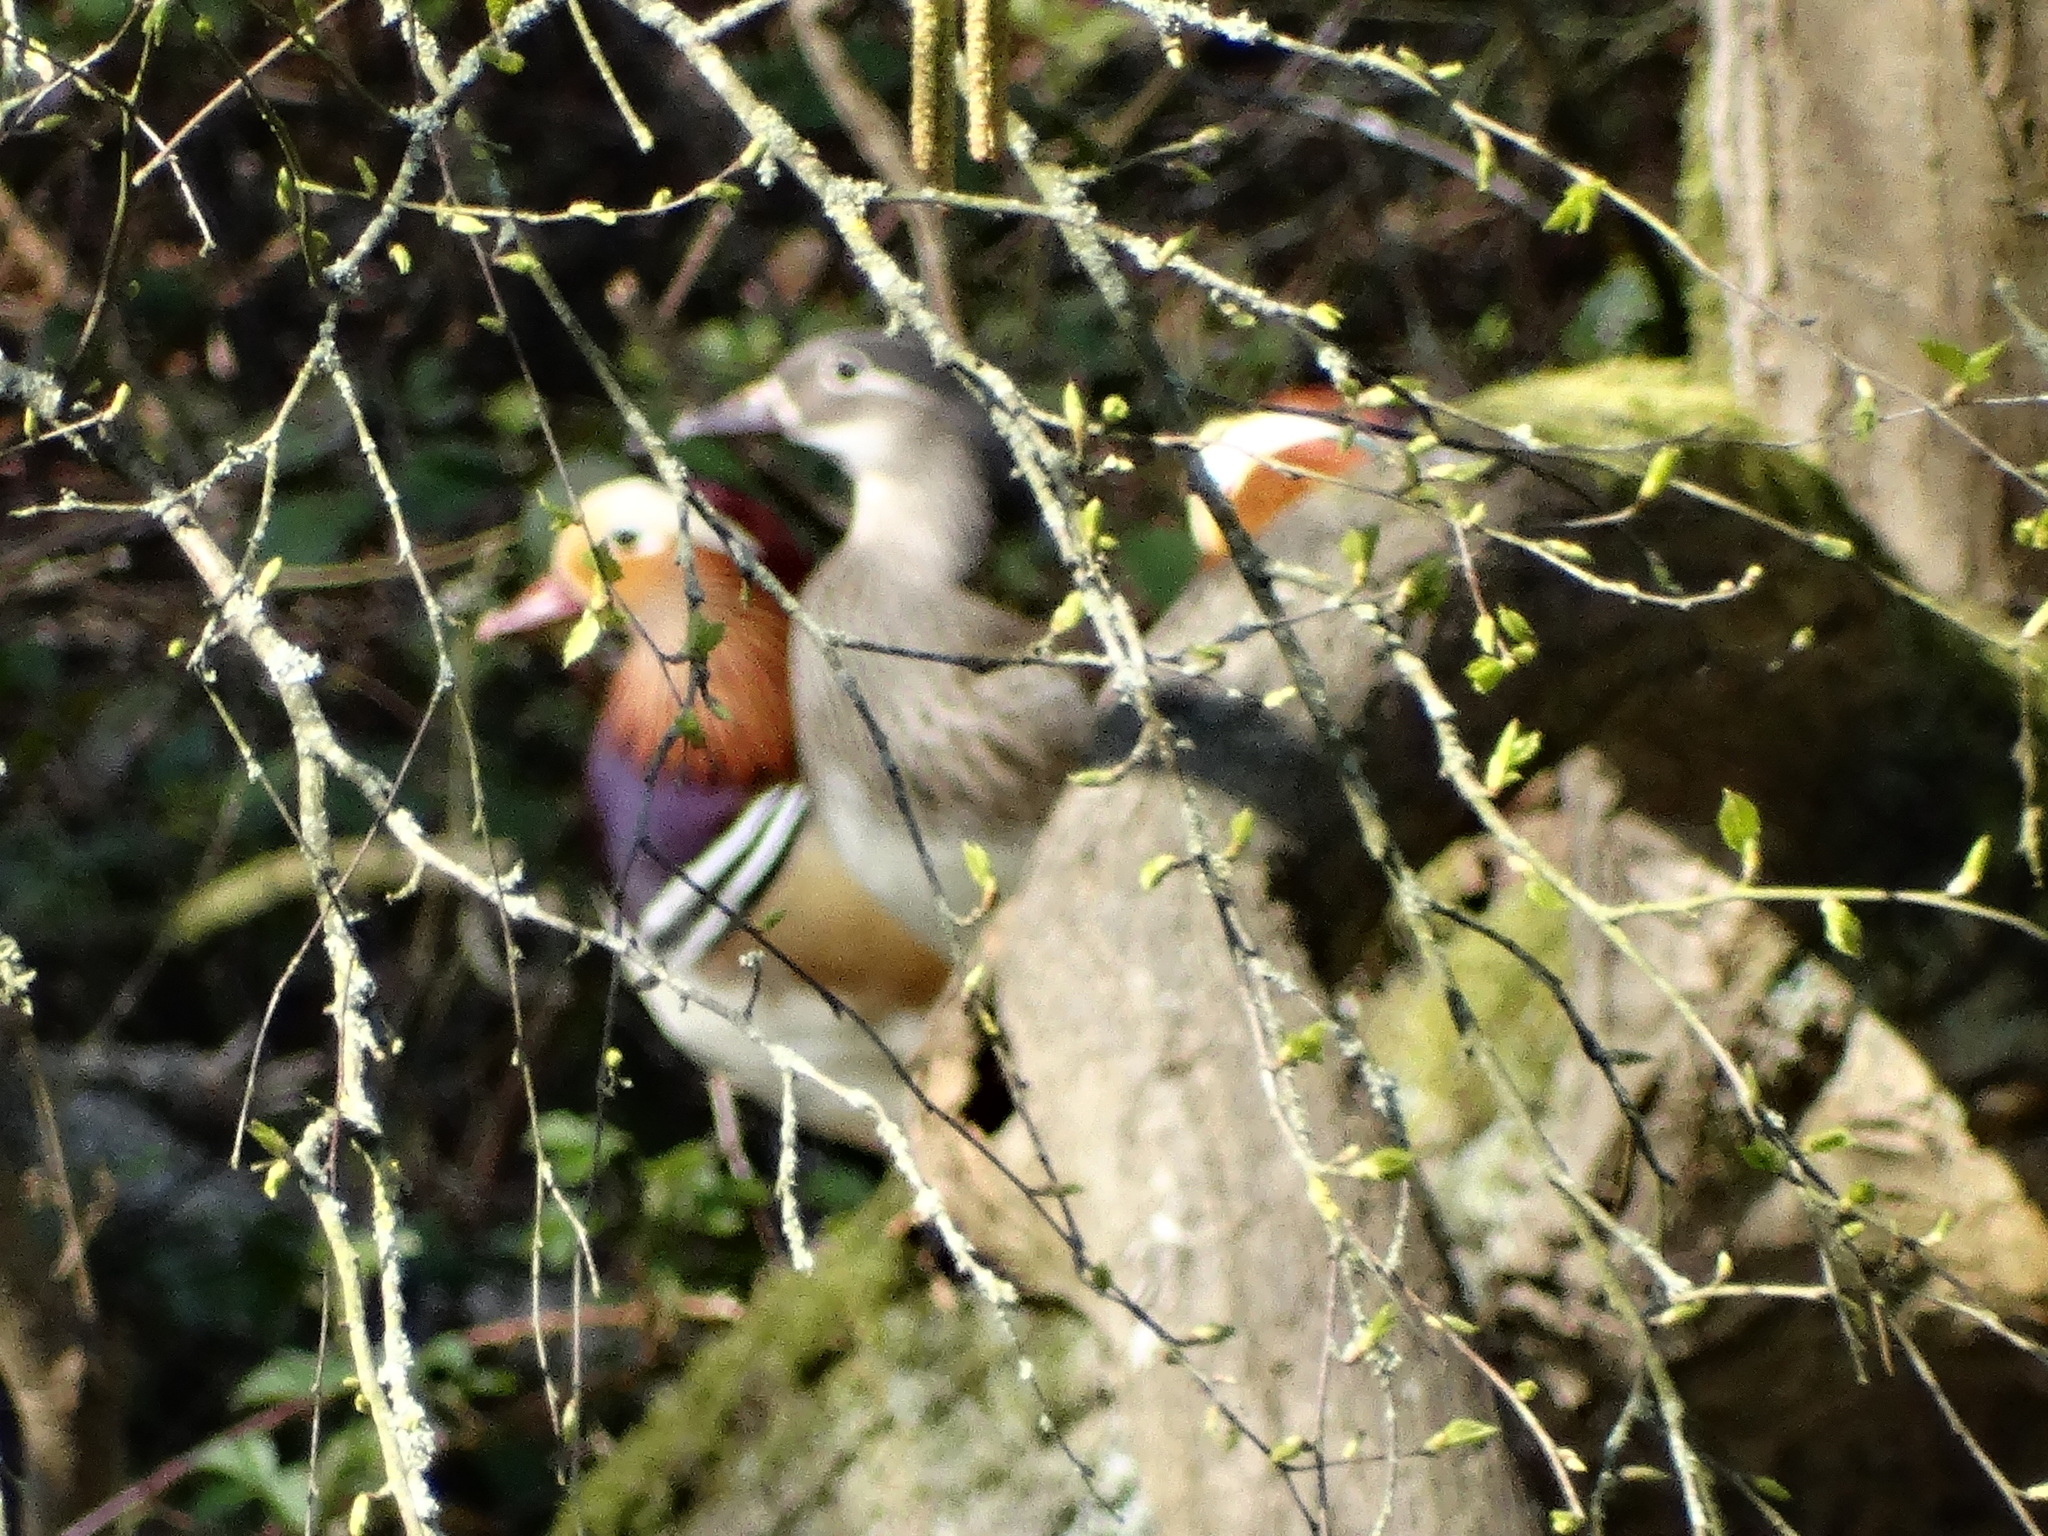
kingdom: Animalia
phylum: Chordata
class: Aves
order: Anseriformes
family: Anatidae
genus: Aix
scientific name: Aix galericulata
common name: Mandarin duck
